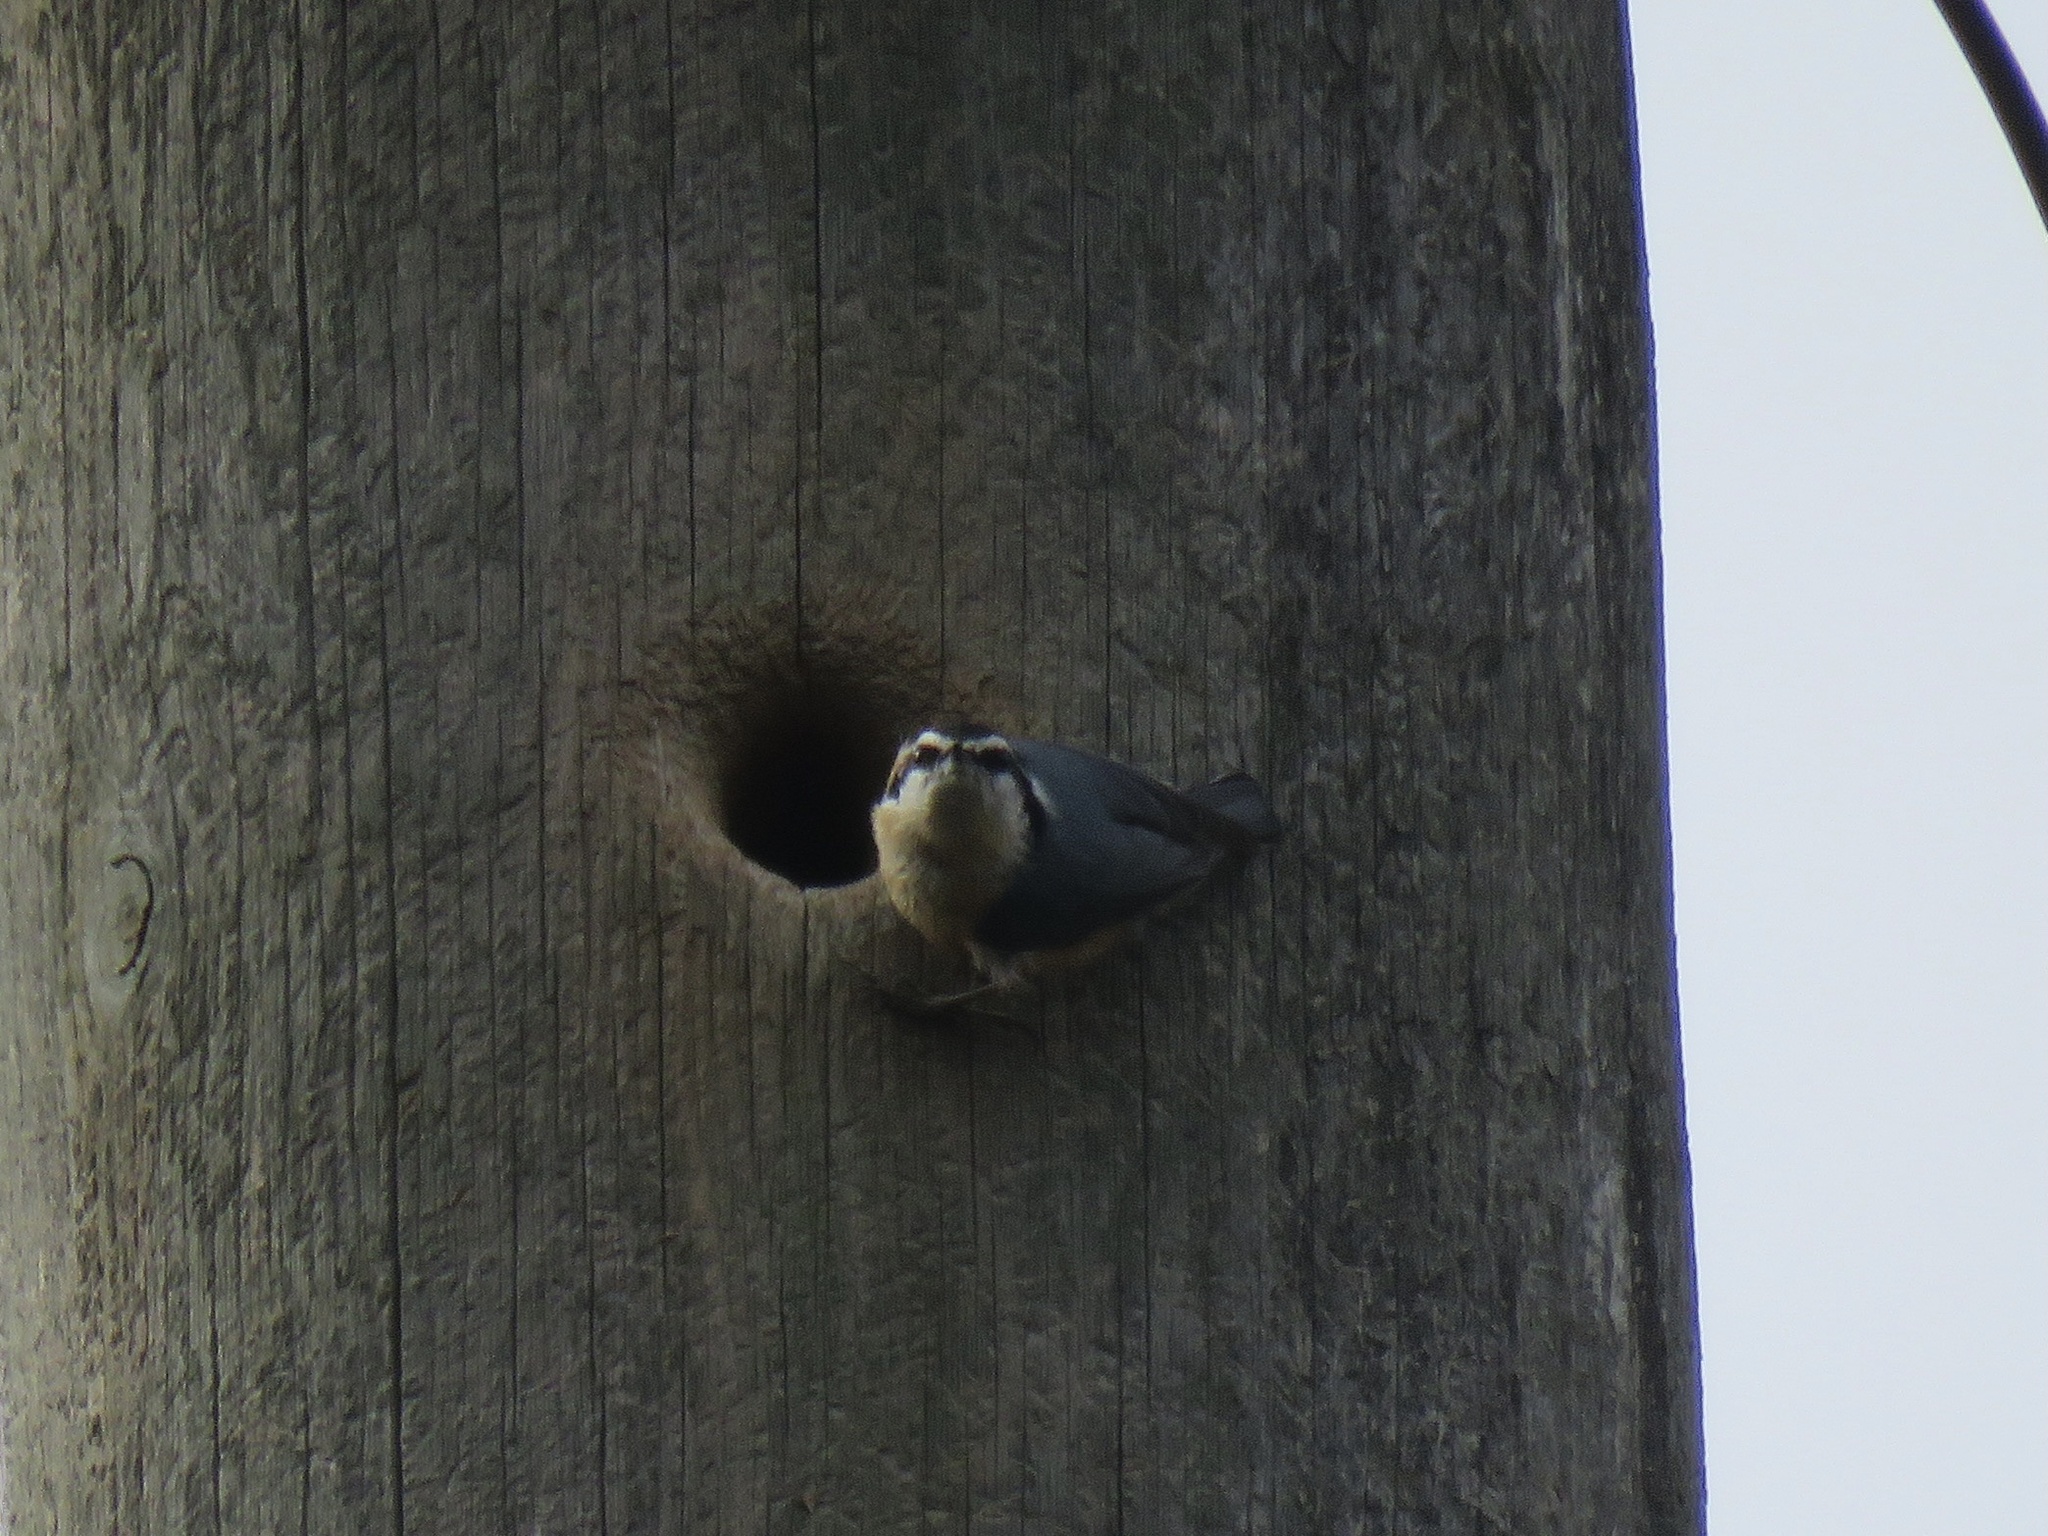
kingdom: Animalia
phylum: Chordata
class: Aves
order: Passeriformes
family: Sittidae
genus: Sitta
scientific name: Sitta canadensis
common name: Red-breasted nuthatch
